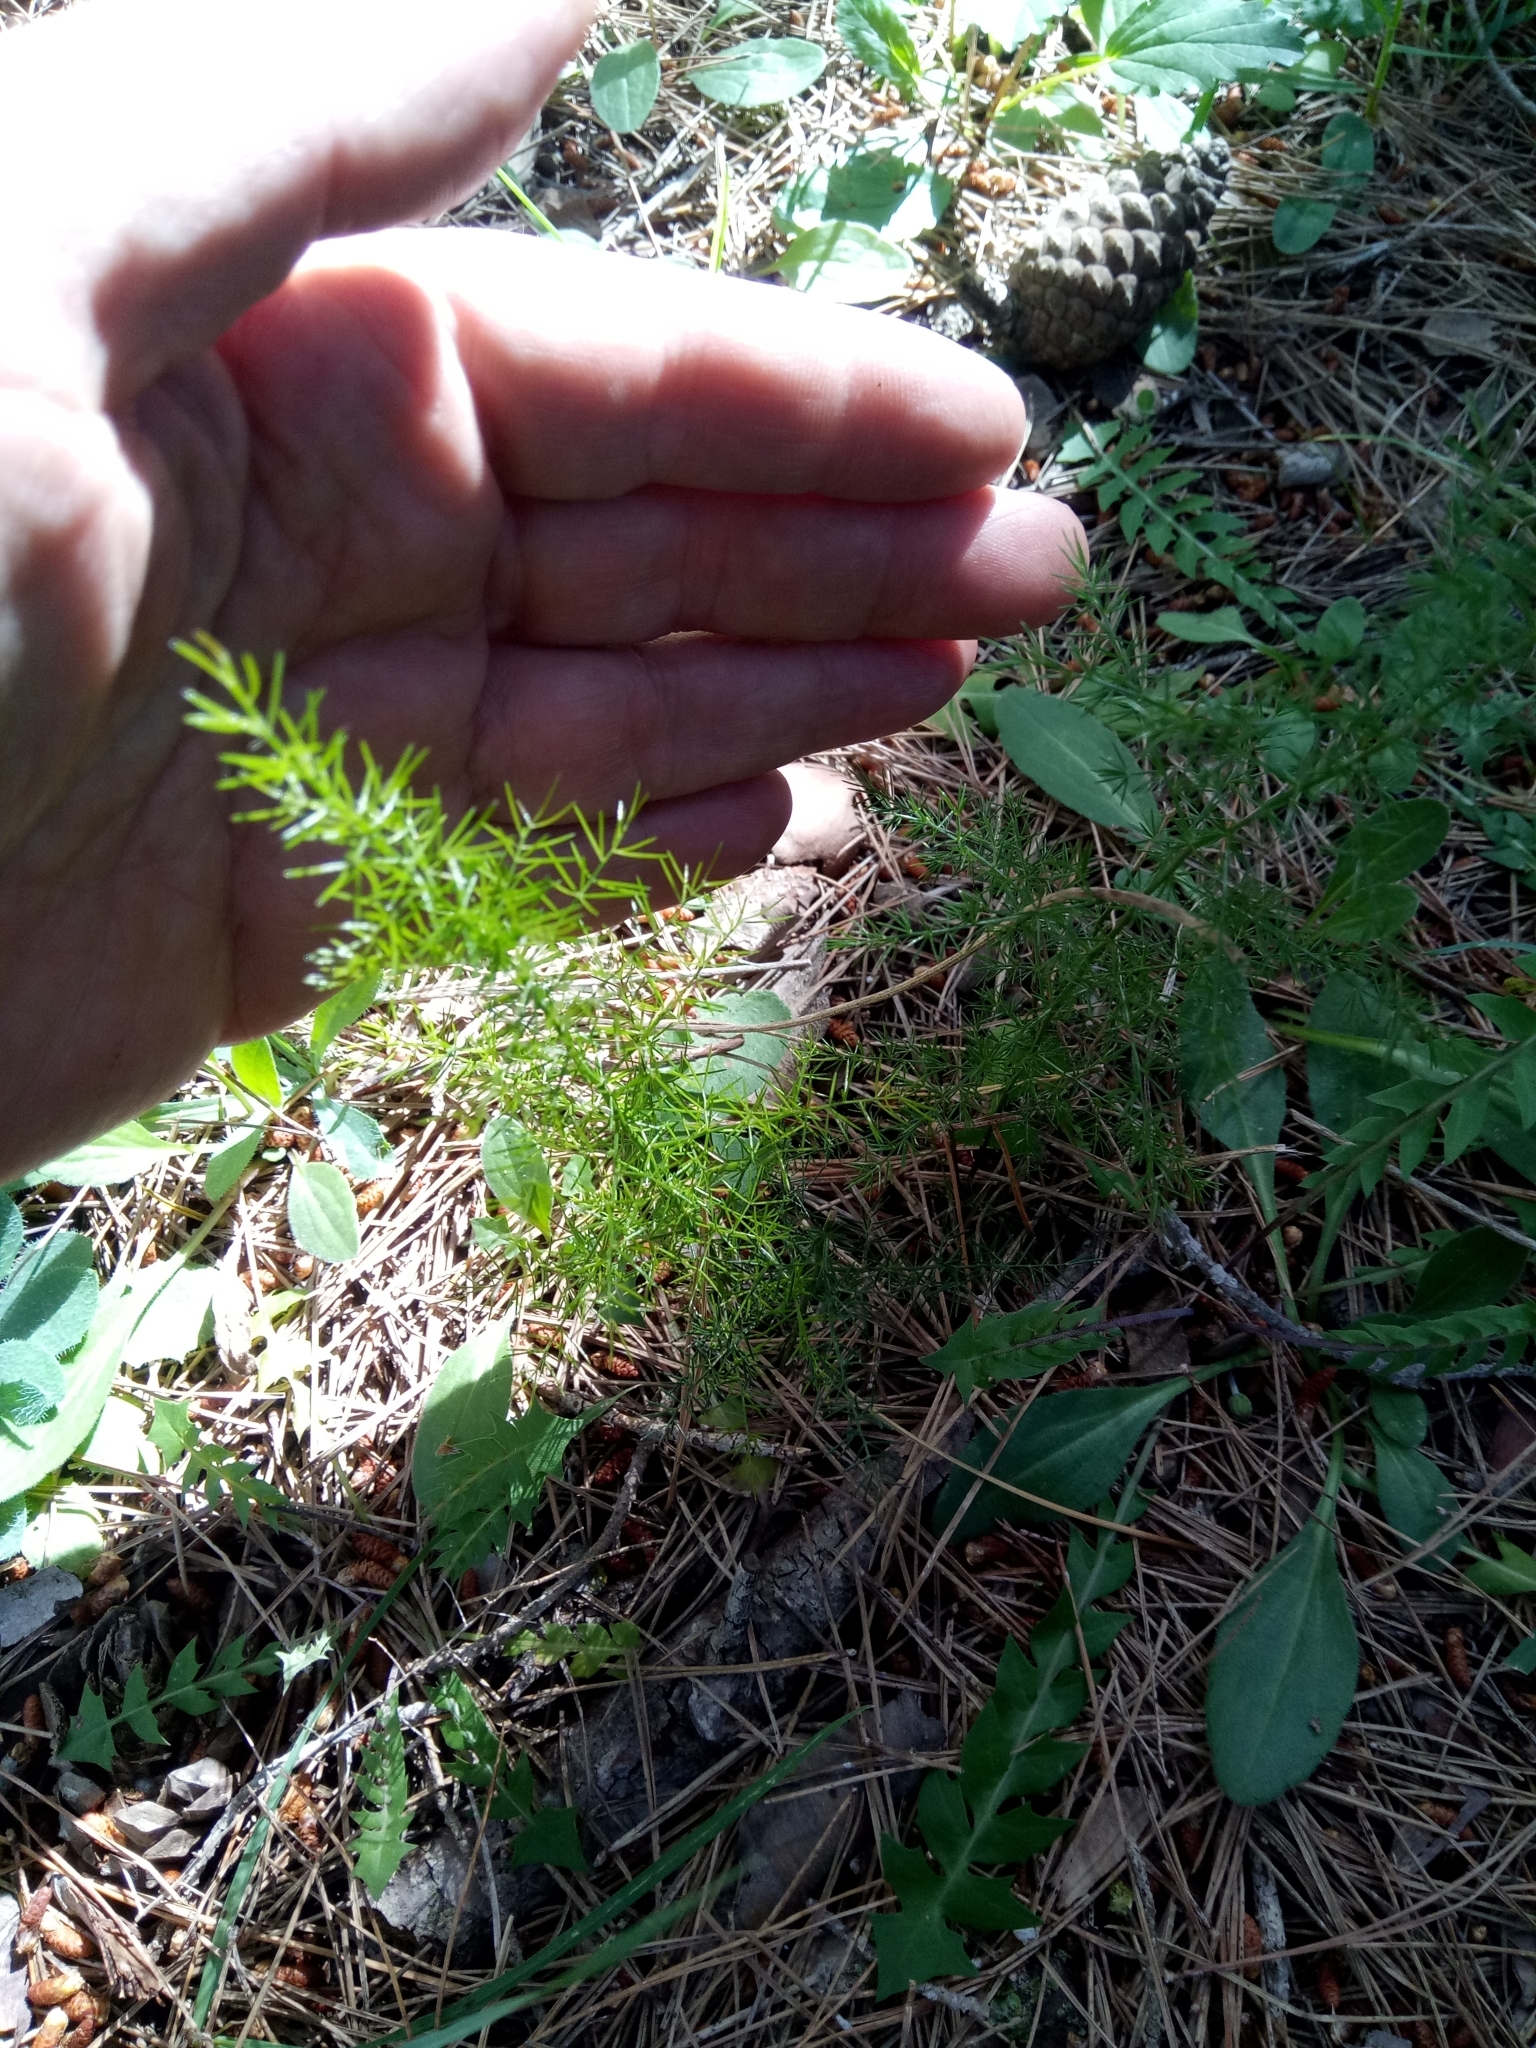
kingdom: Plantae
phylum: Tracheophyta
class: Liliopsida
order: Asparagales
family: Asparagaceae
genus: Asparagus
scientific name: Asparagus acutifolius
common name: Wild asparagus
